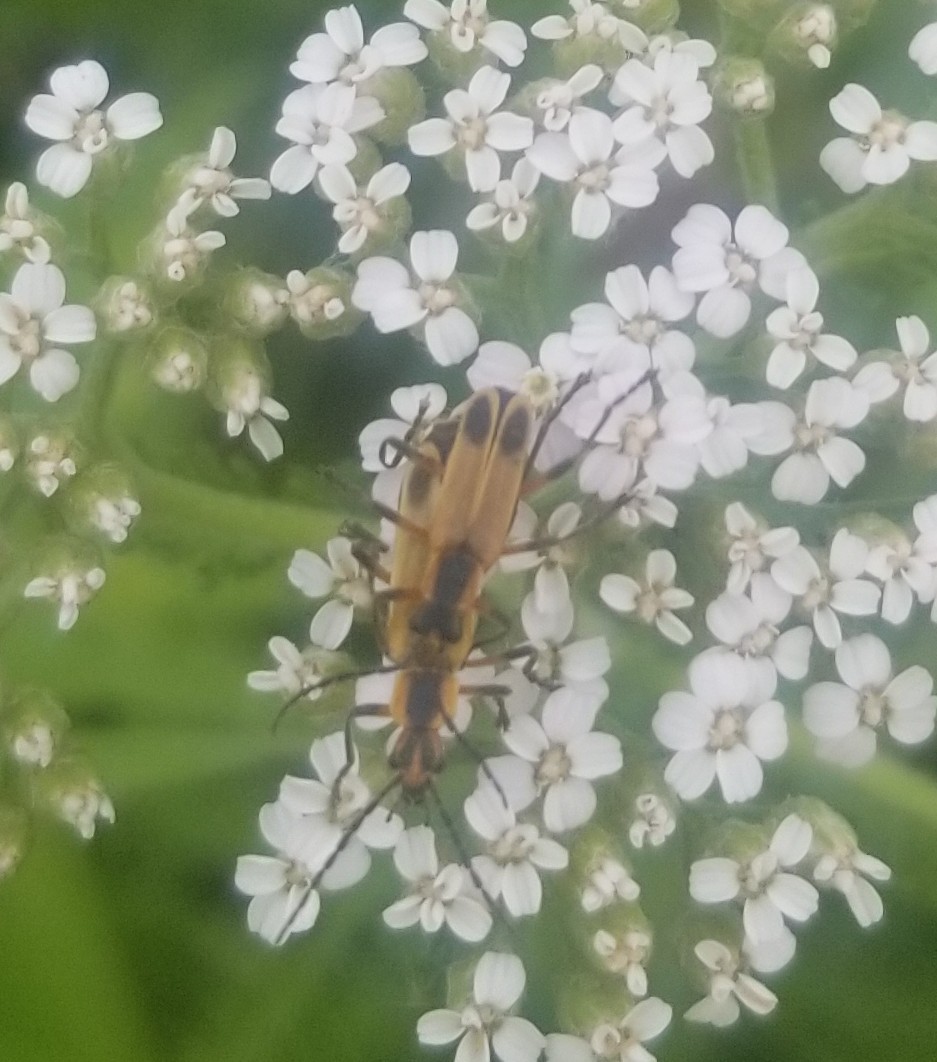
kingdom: Animalia
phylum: Arthropoda
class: Insecta
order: Coleoptera
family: Cantharidae
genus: Chauliognathus
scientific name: Chauliognathus marginatus
